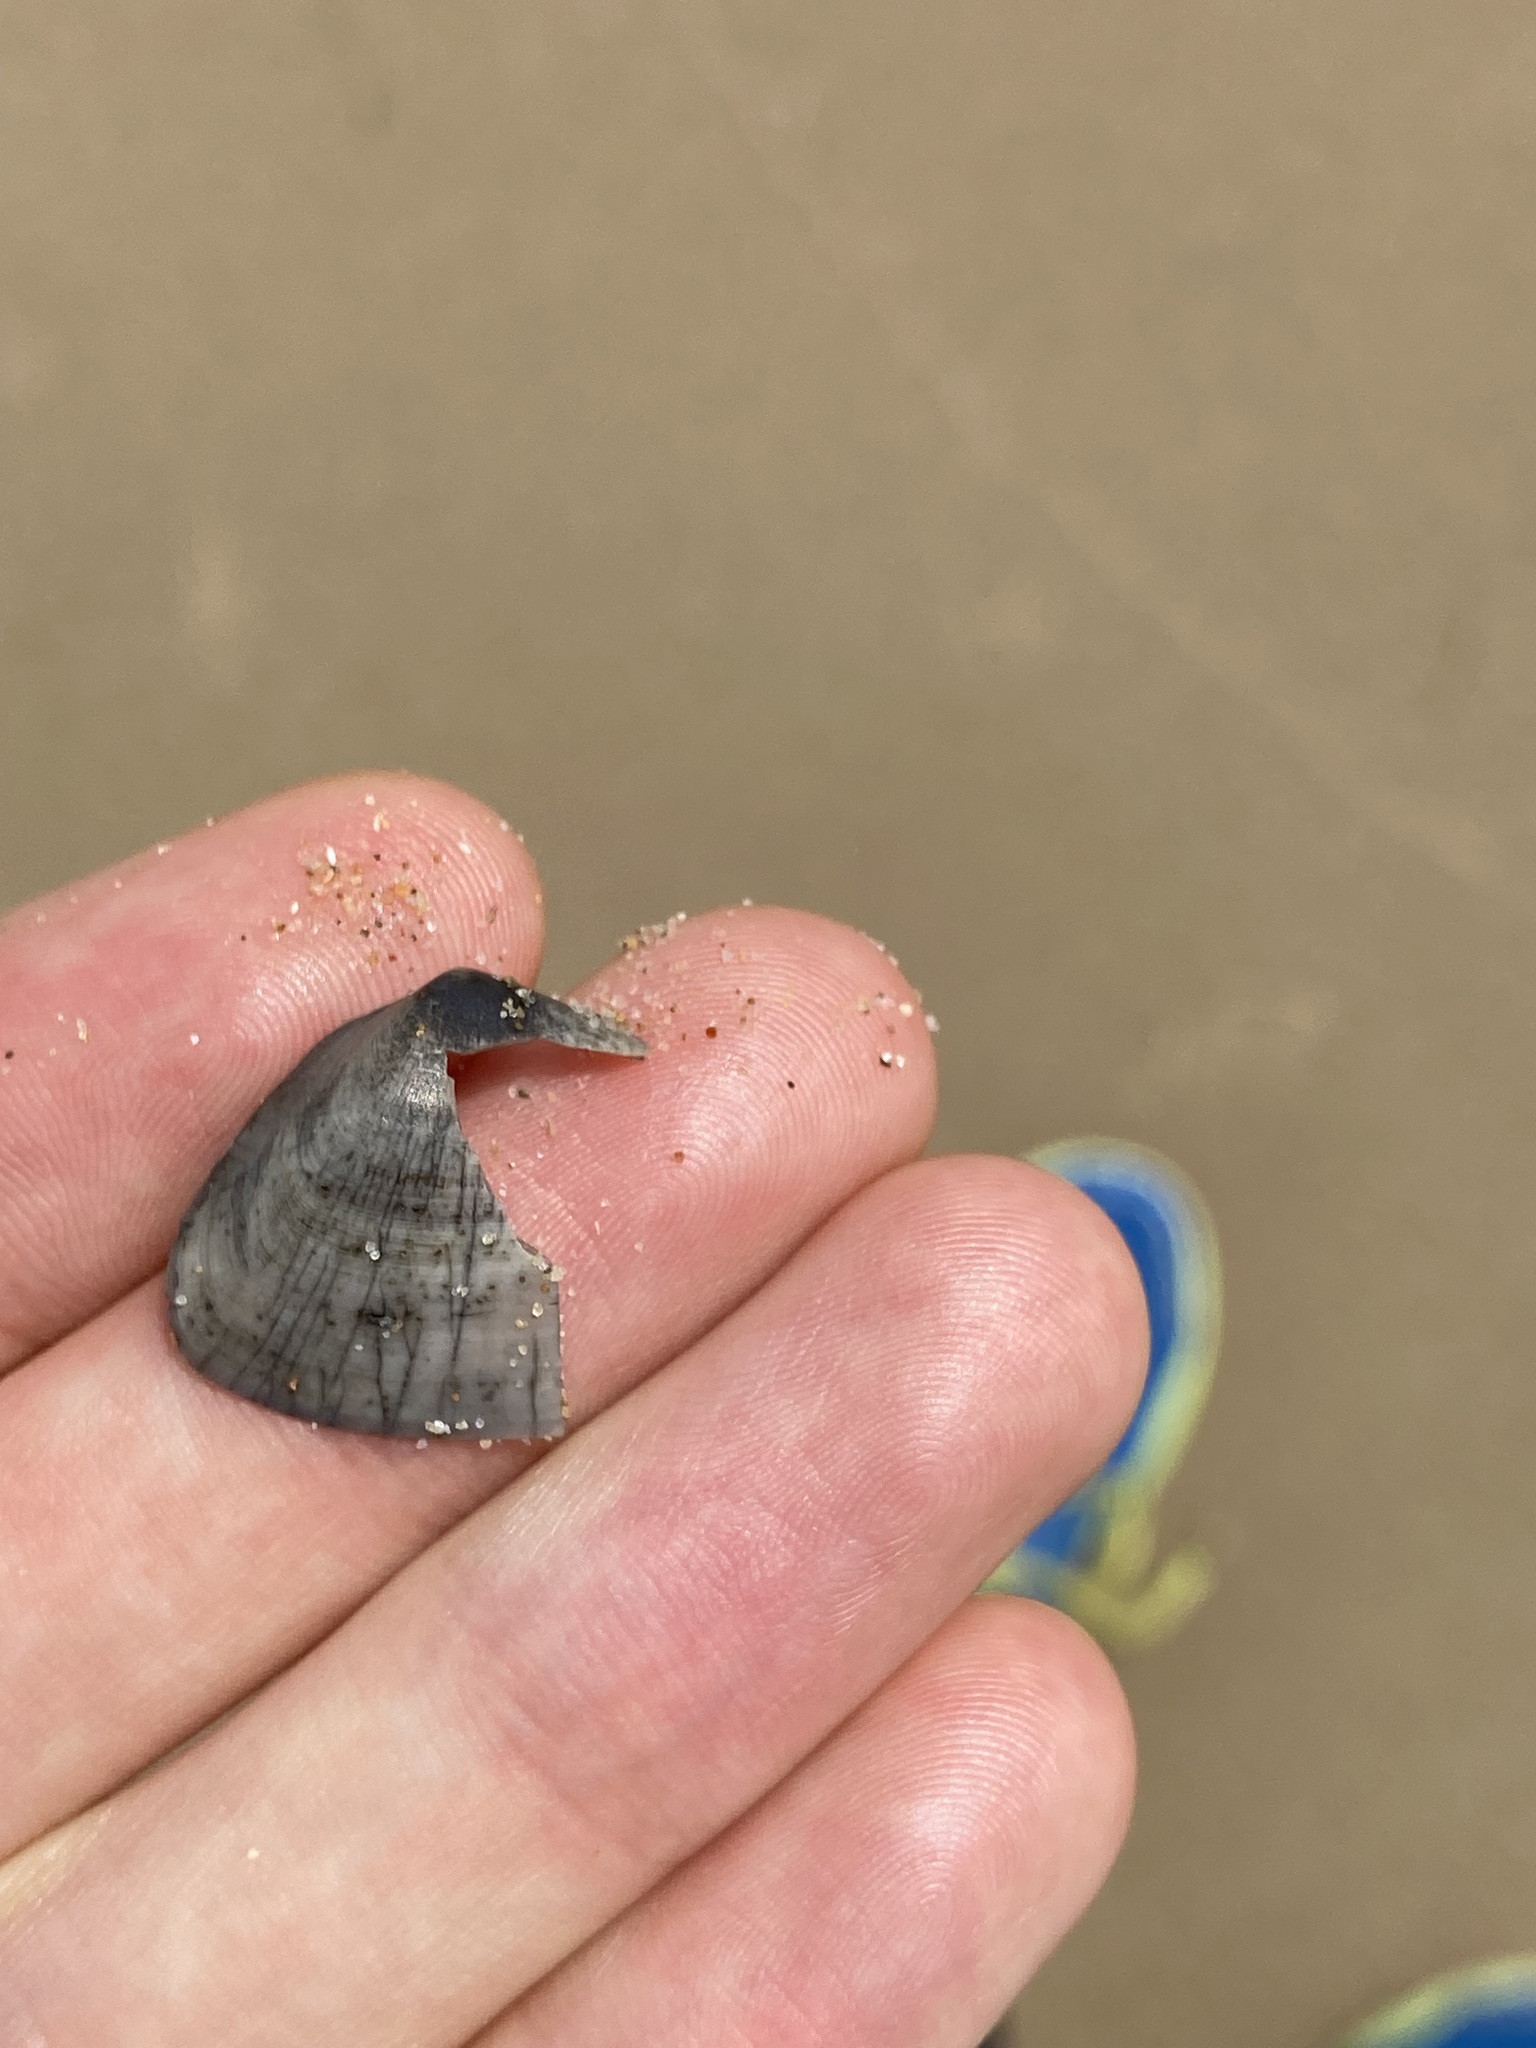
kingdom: Animalia
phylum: Mollusca
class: Bivalvia
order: Cardiida
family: Donacidae
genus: Latona
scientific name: Latona deltoides
